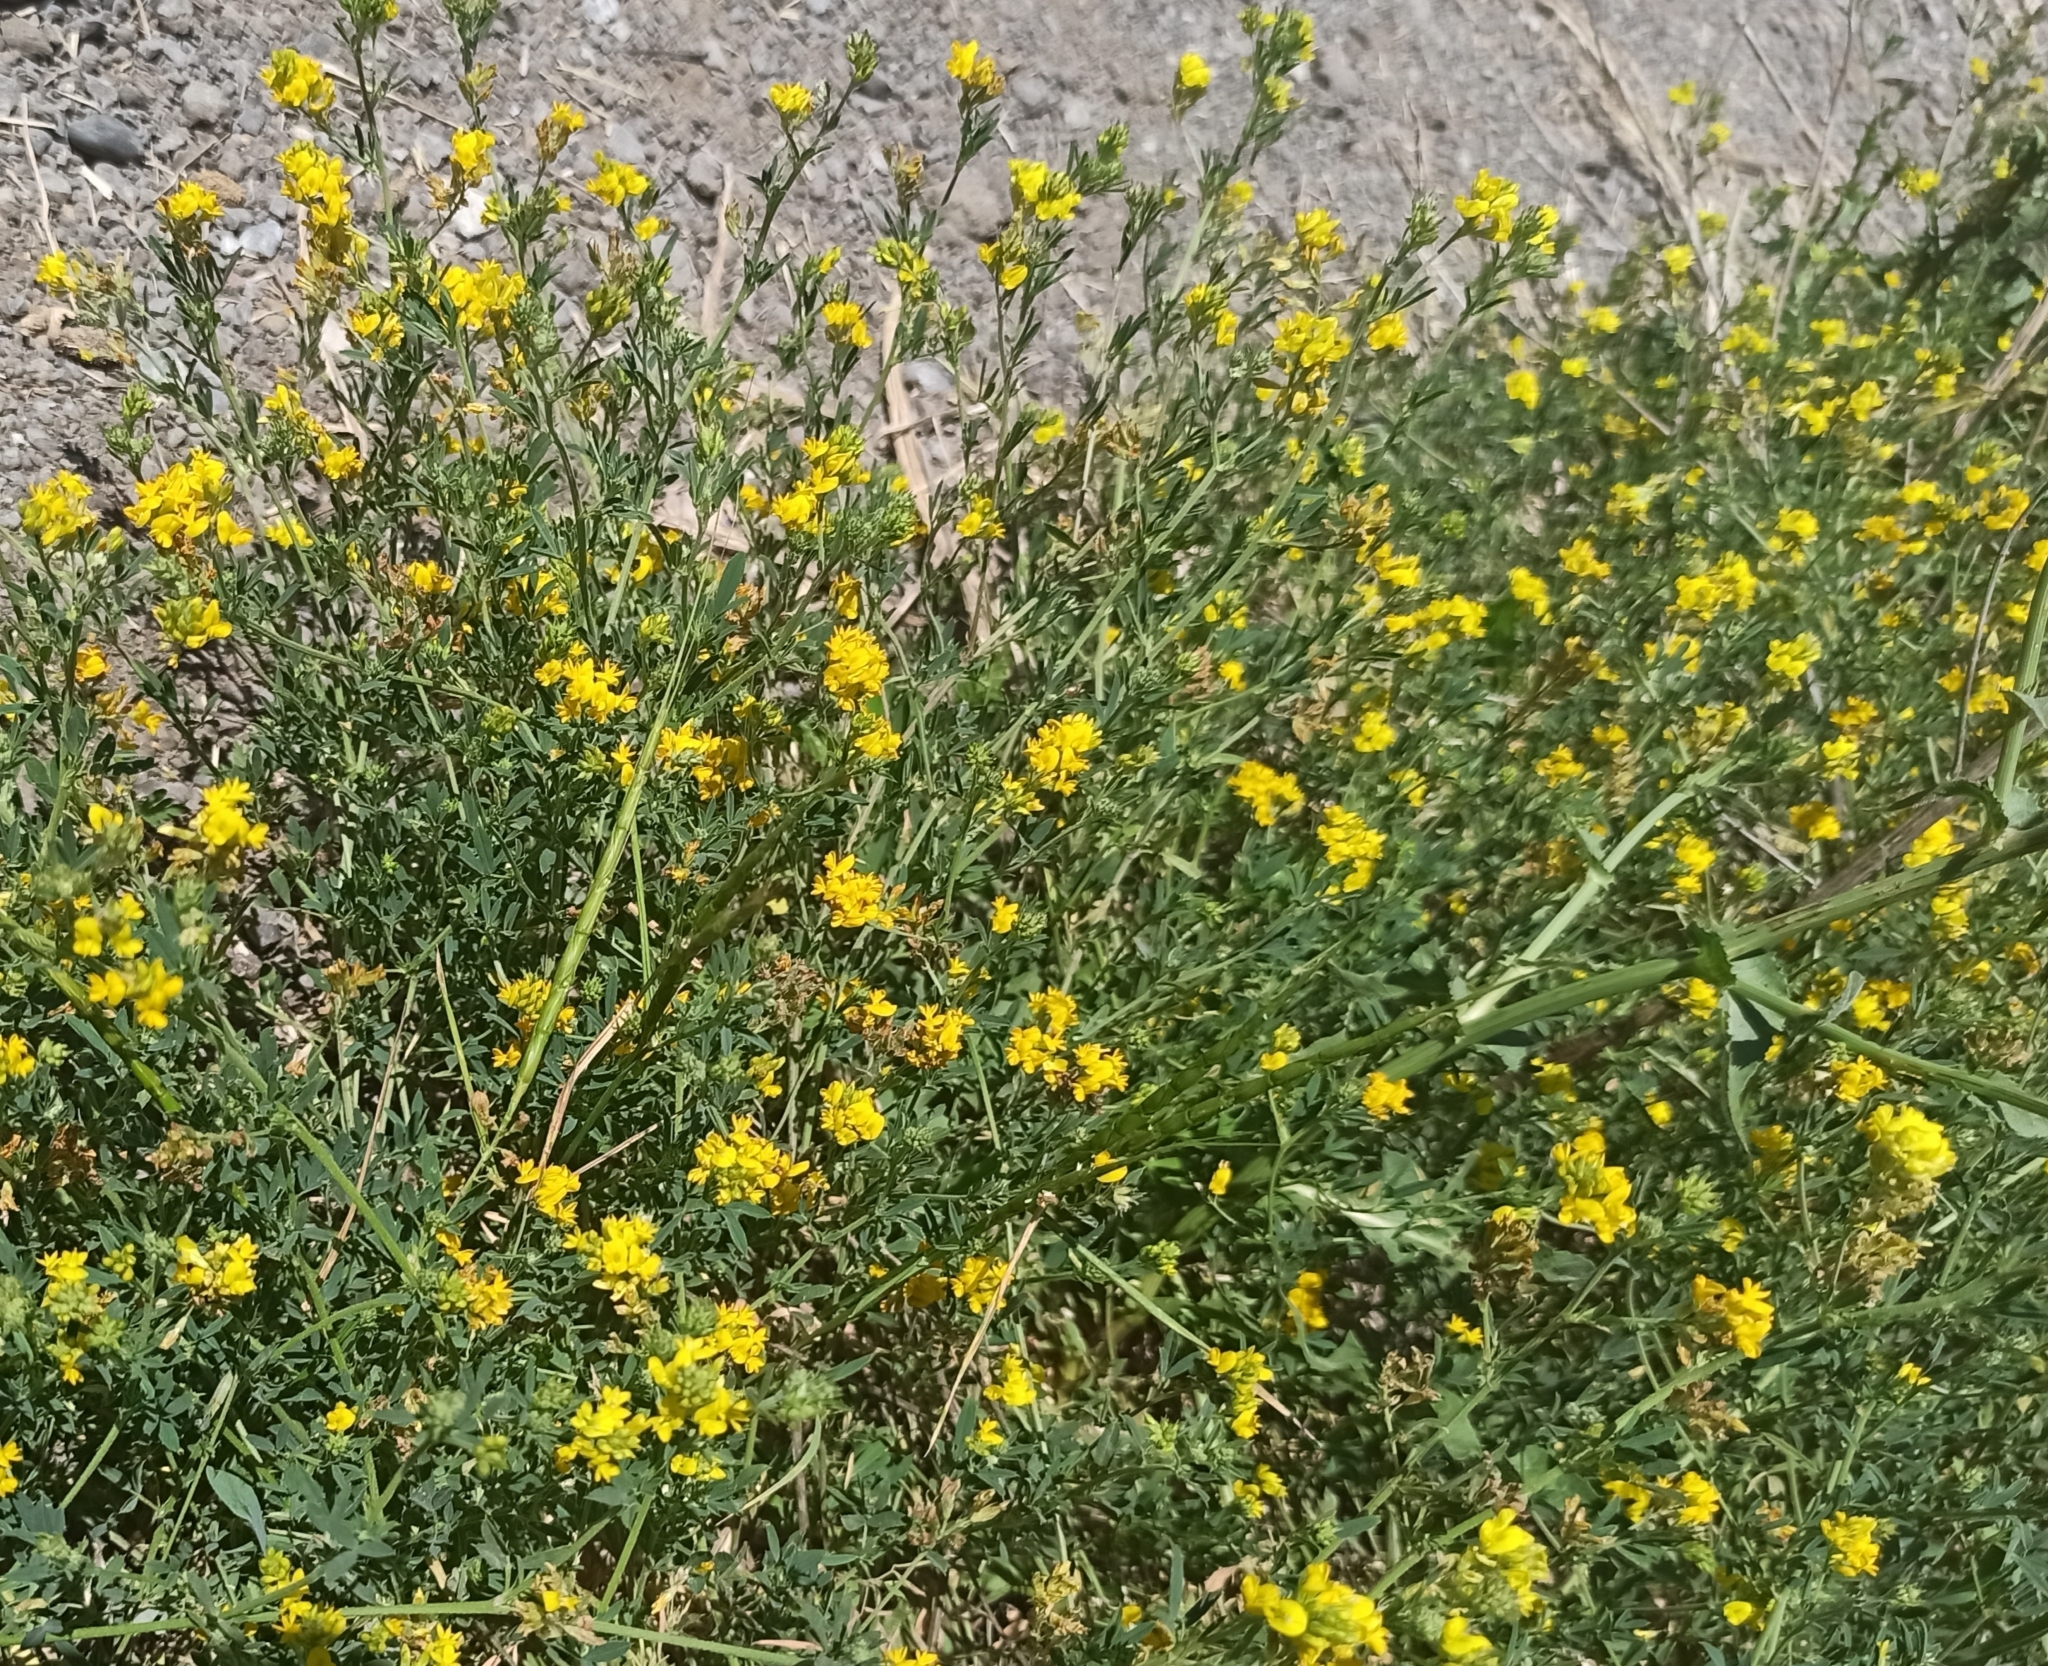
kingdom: Plantae
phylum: Tracheophyta
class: Magnoliopsida
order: Fabales
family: Fabaceae
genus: Medicago
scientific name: Medicago falcata
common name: Sickle medick
